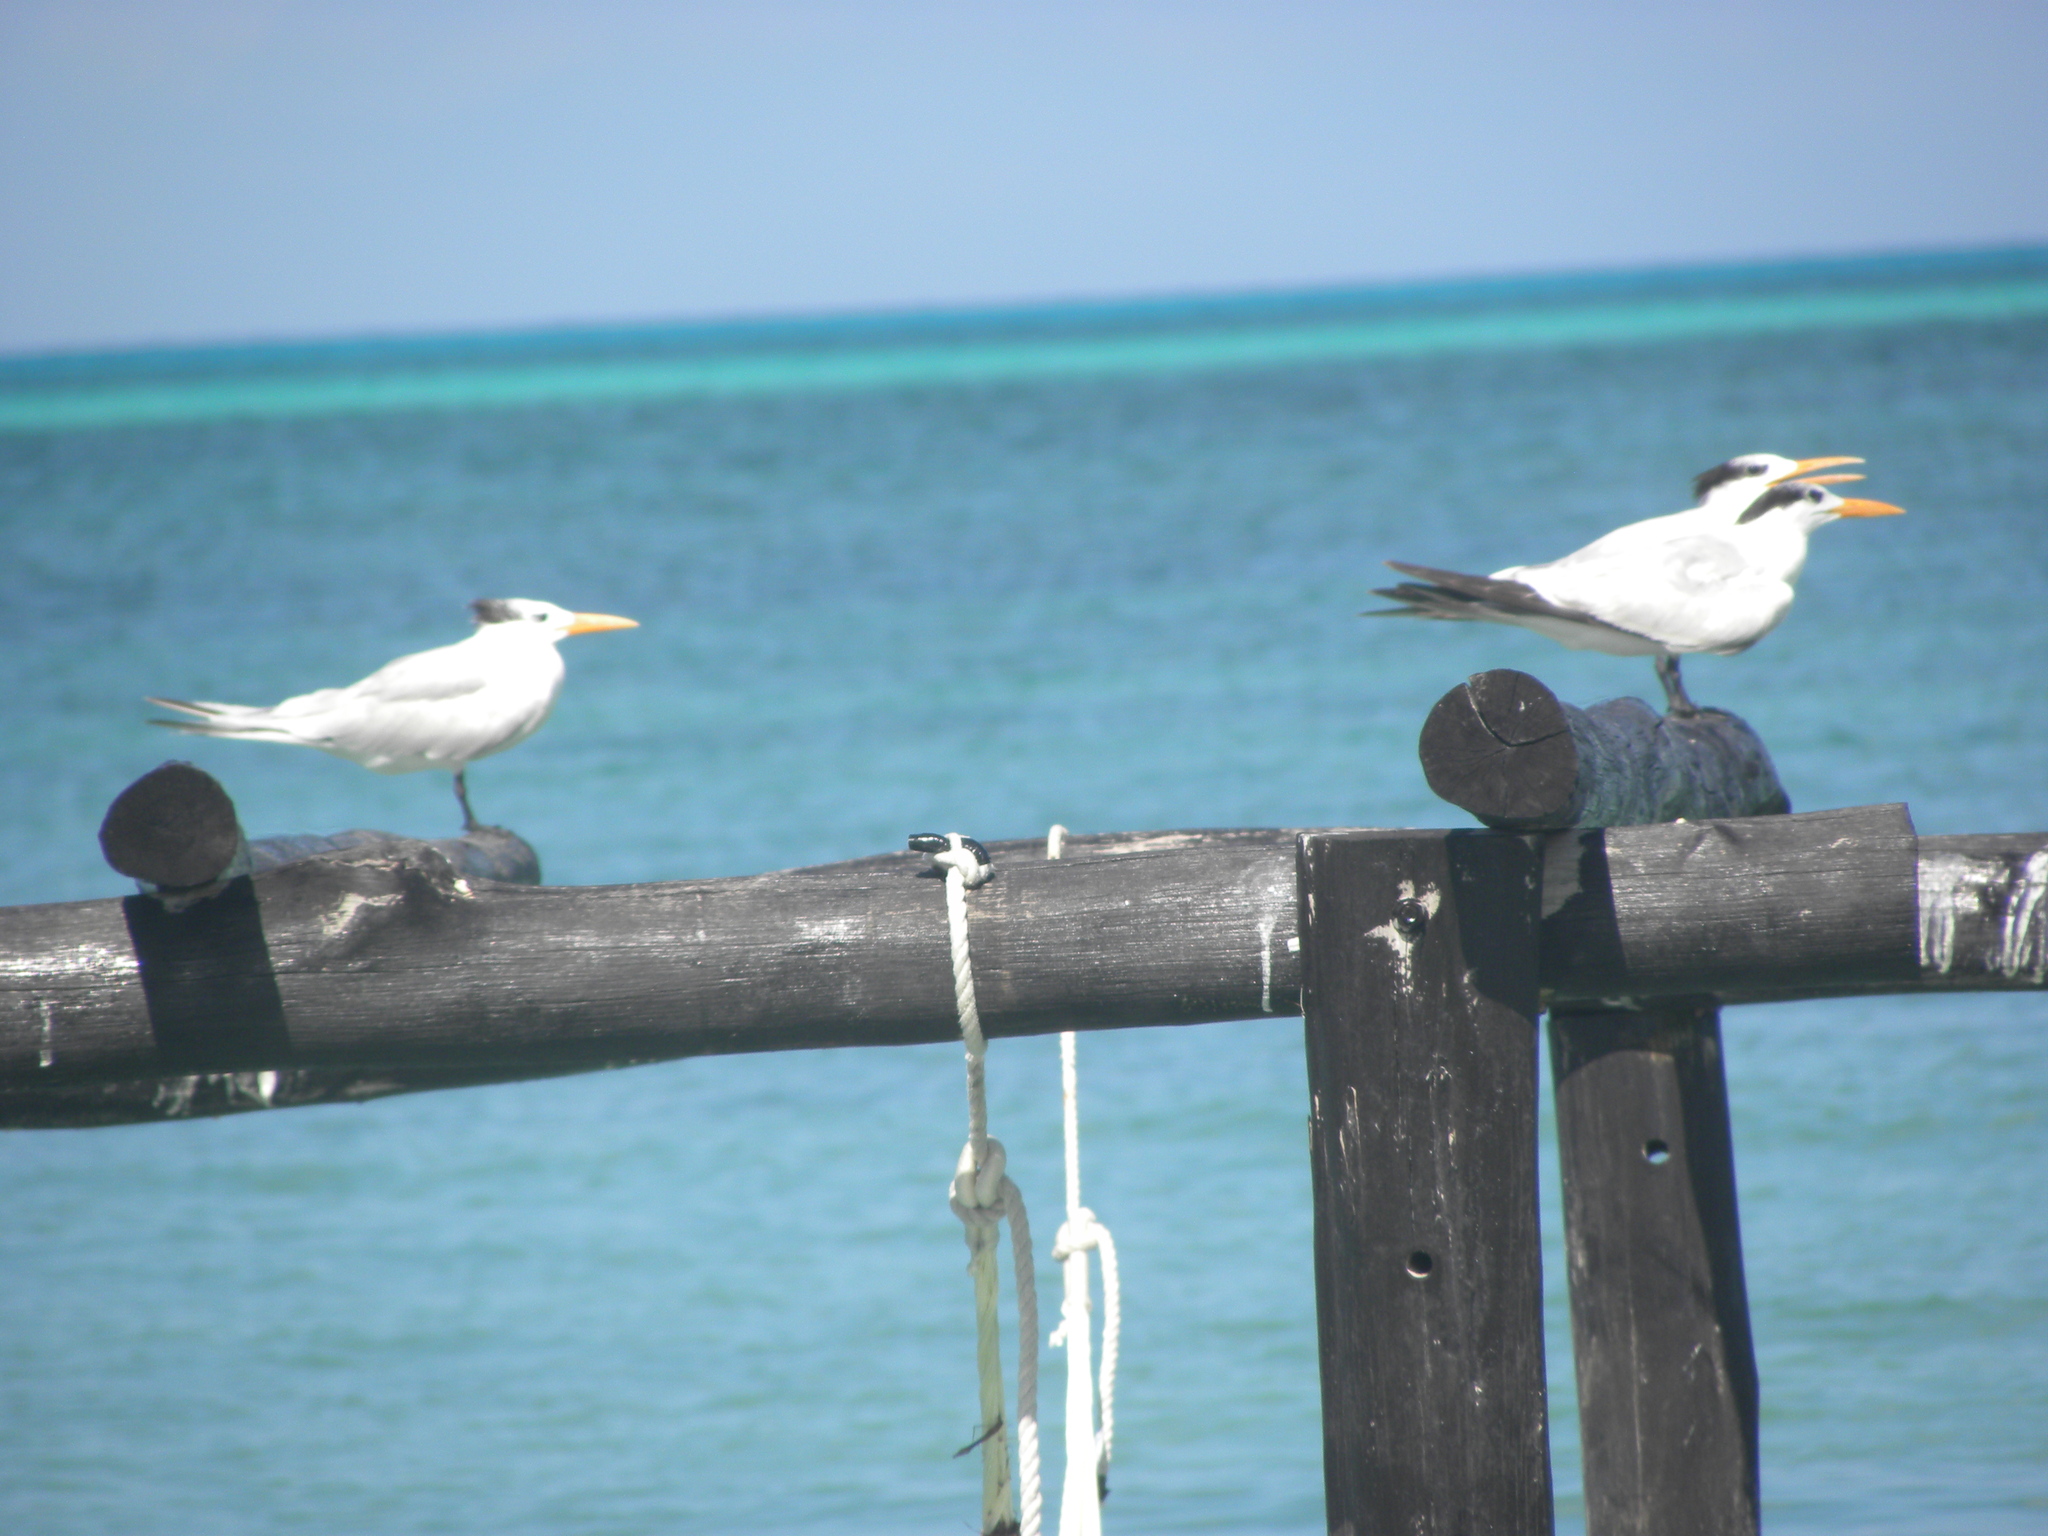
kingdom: Animalia
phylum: Chordata
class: Aves
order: Charadriiformes
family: Laridae
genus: Thalasseus
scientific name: Thalasseus maximus
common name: Royal tern
